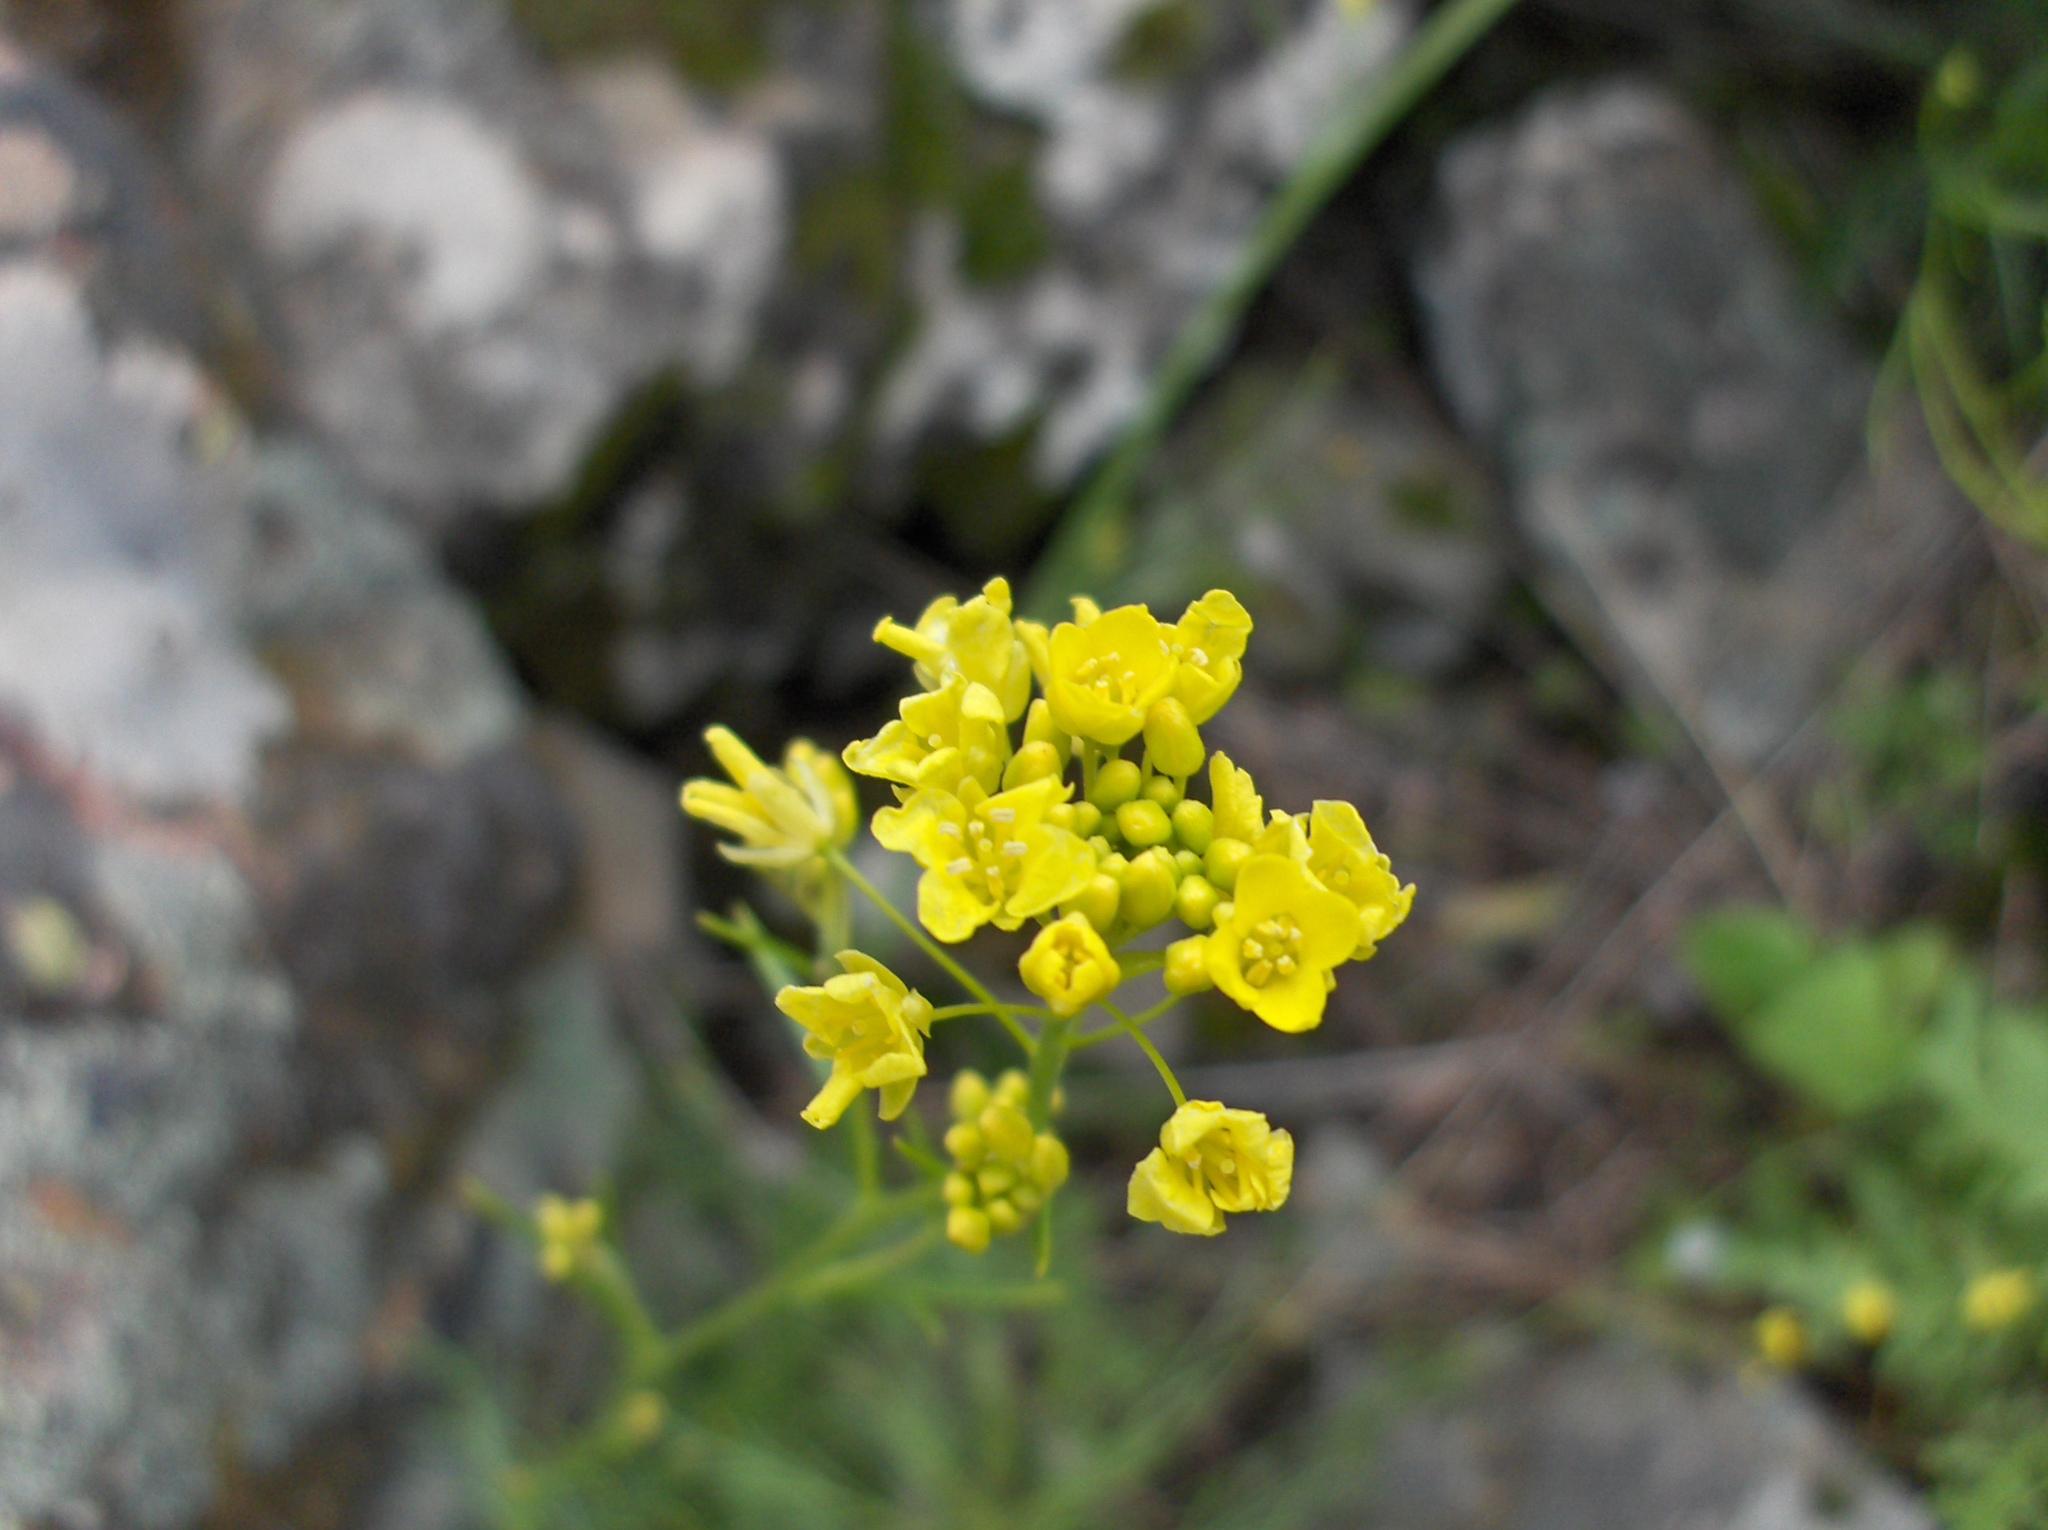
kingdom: Plantae
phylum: Tracheophyta
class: Magnoliopsida
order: Brassicales
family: Brassicaceae
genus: Descurainia
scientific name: Descurainia preauxiana
